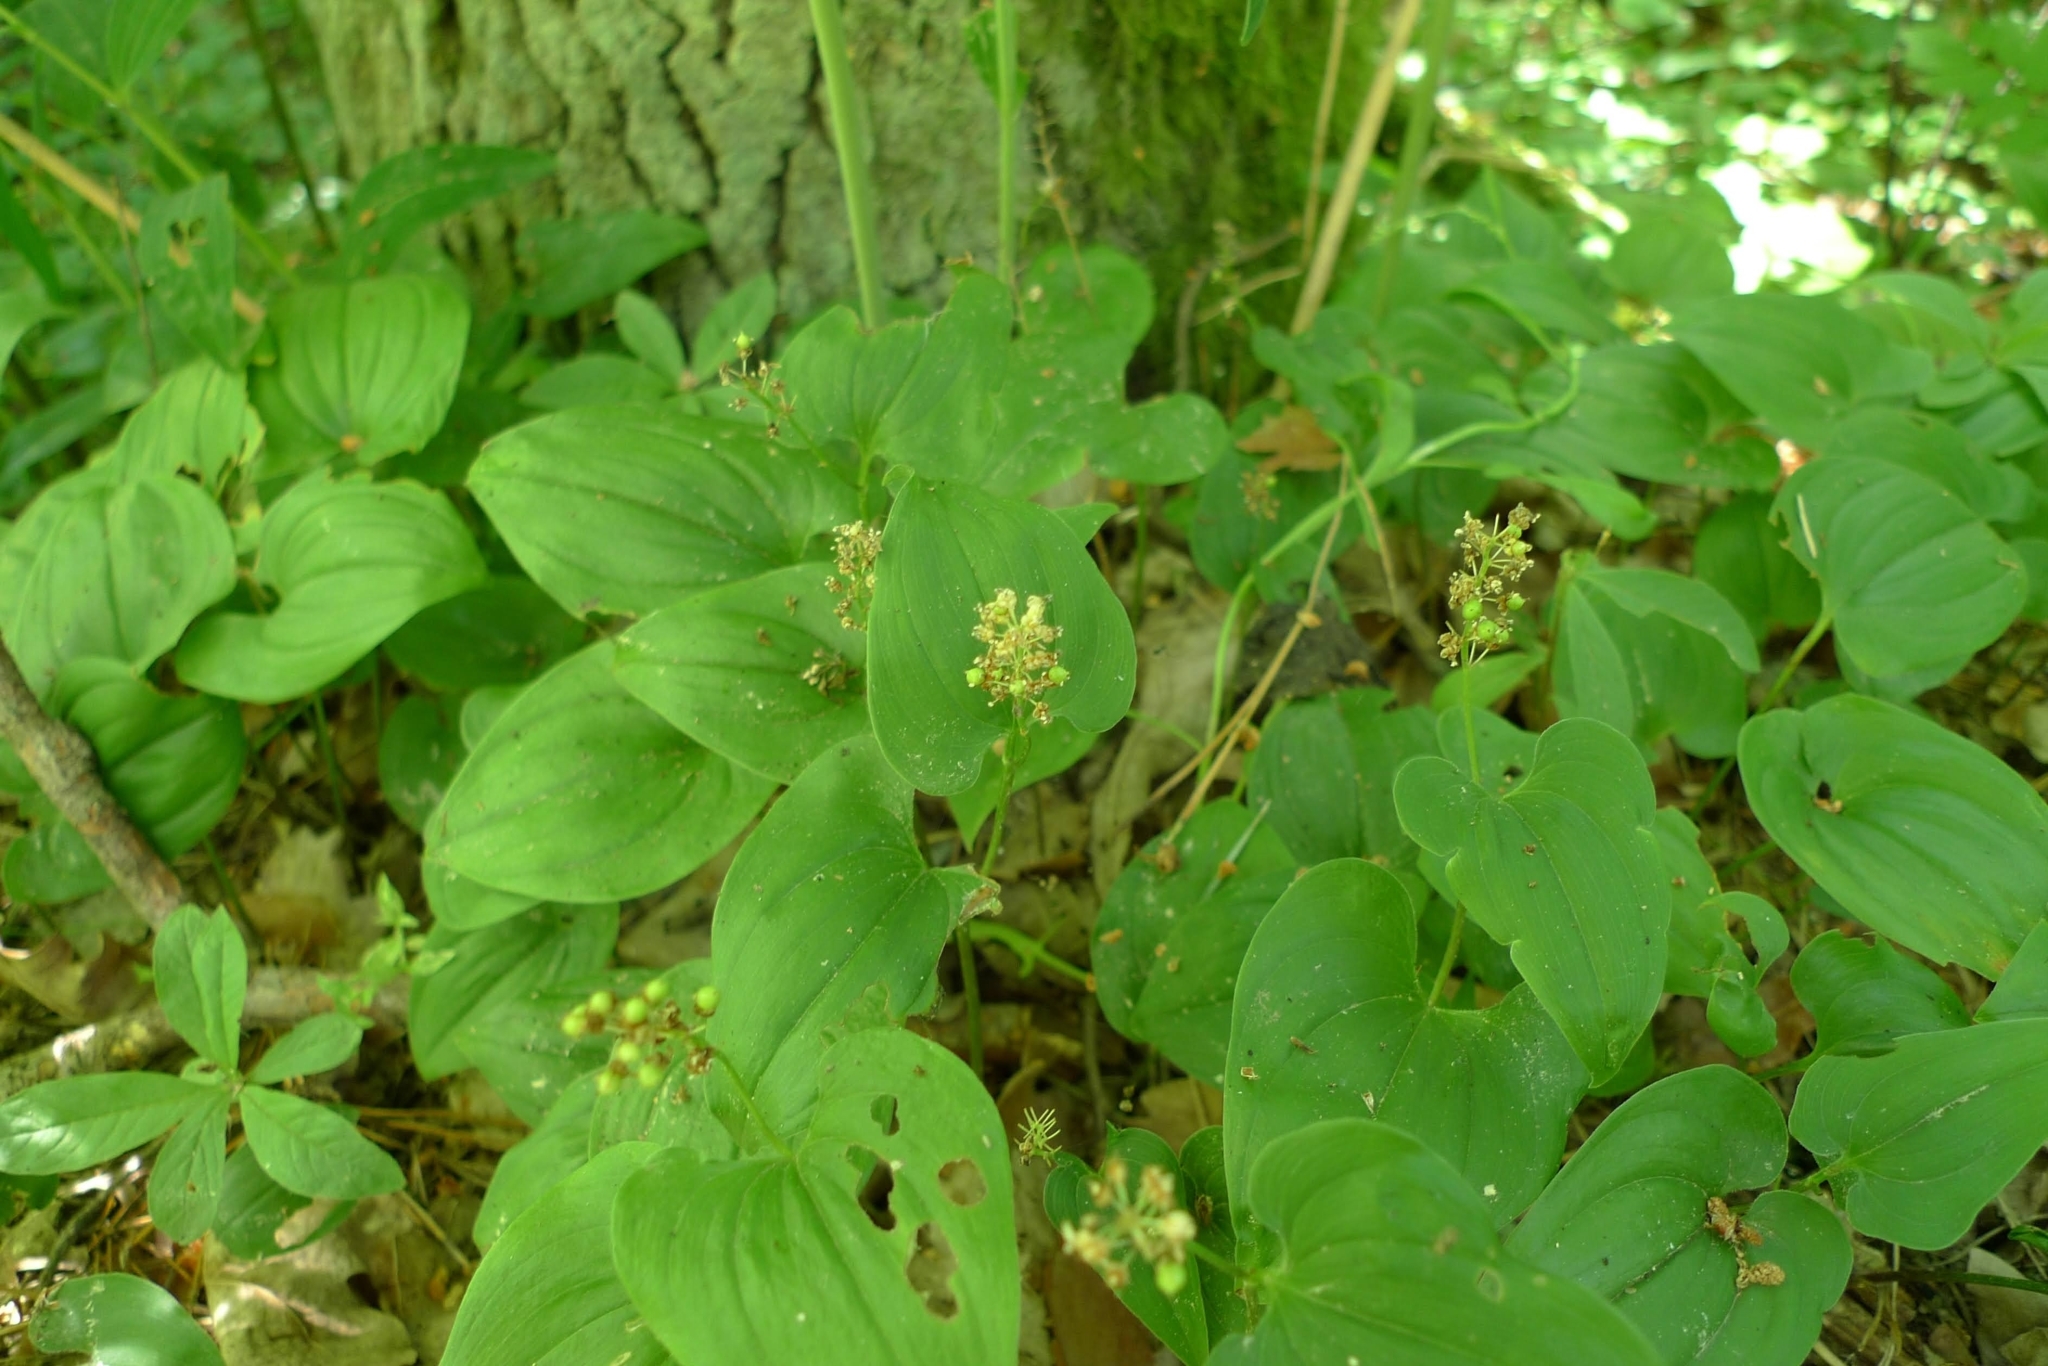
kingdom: Plantae
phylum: Tracheophyta
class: Liliopsida
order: Asparagales
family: Asparagaceae
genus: Maianthemum
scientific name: Maianthemum bifolium
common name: May lily
